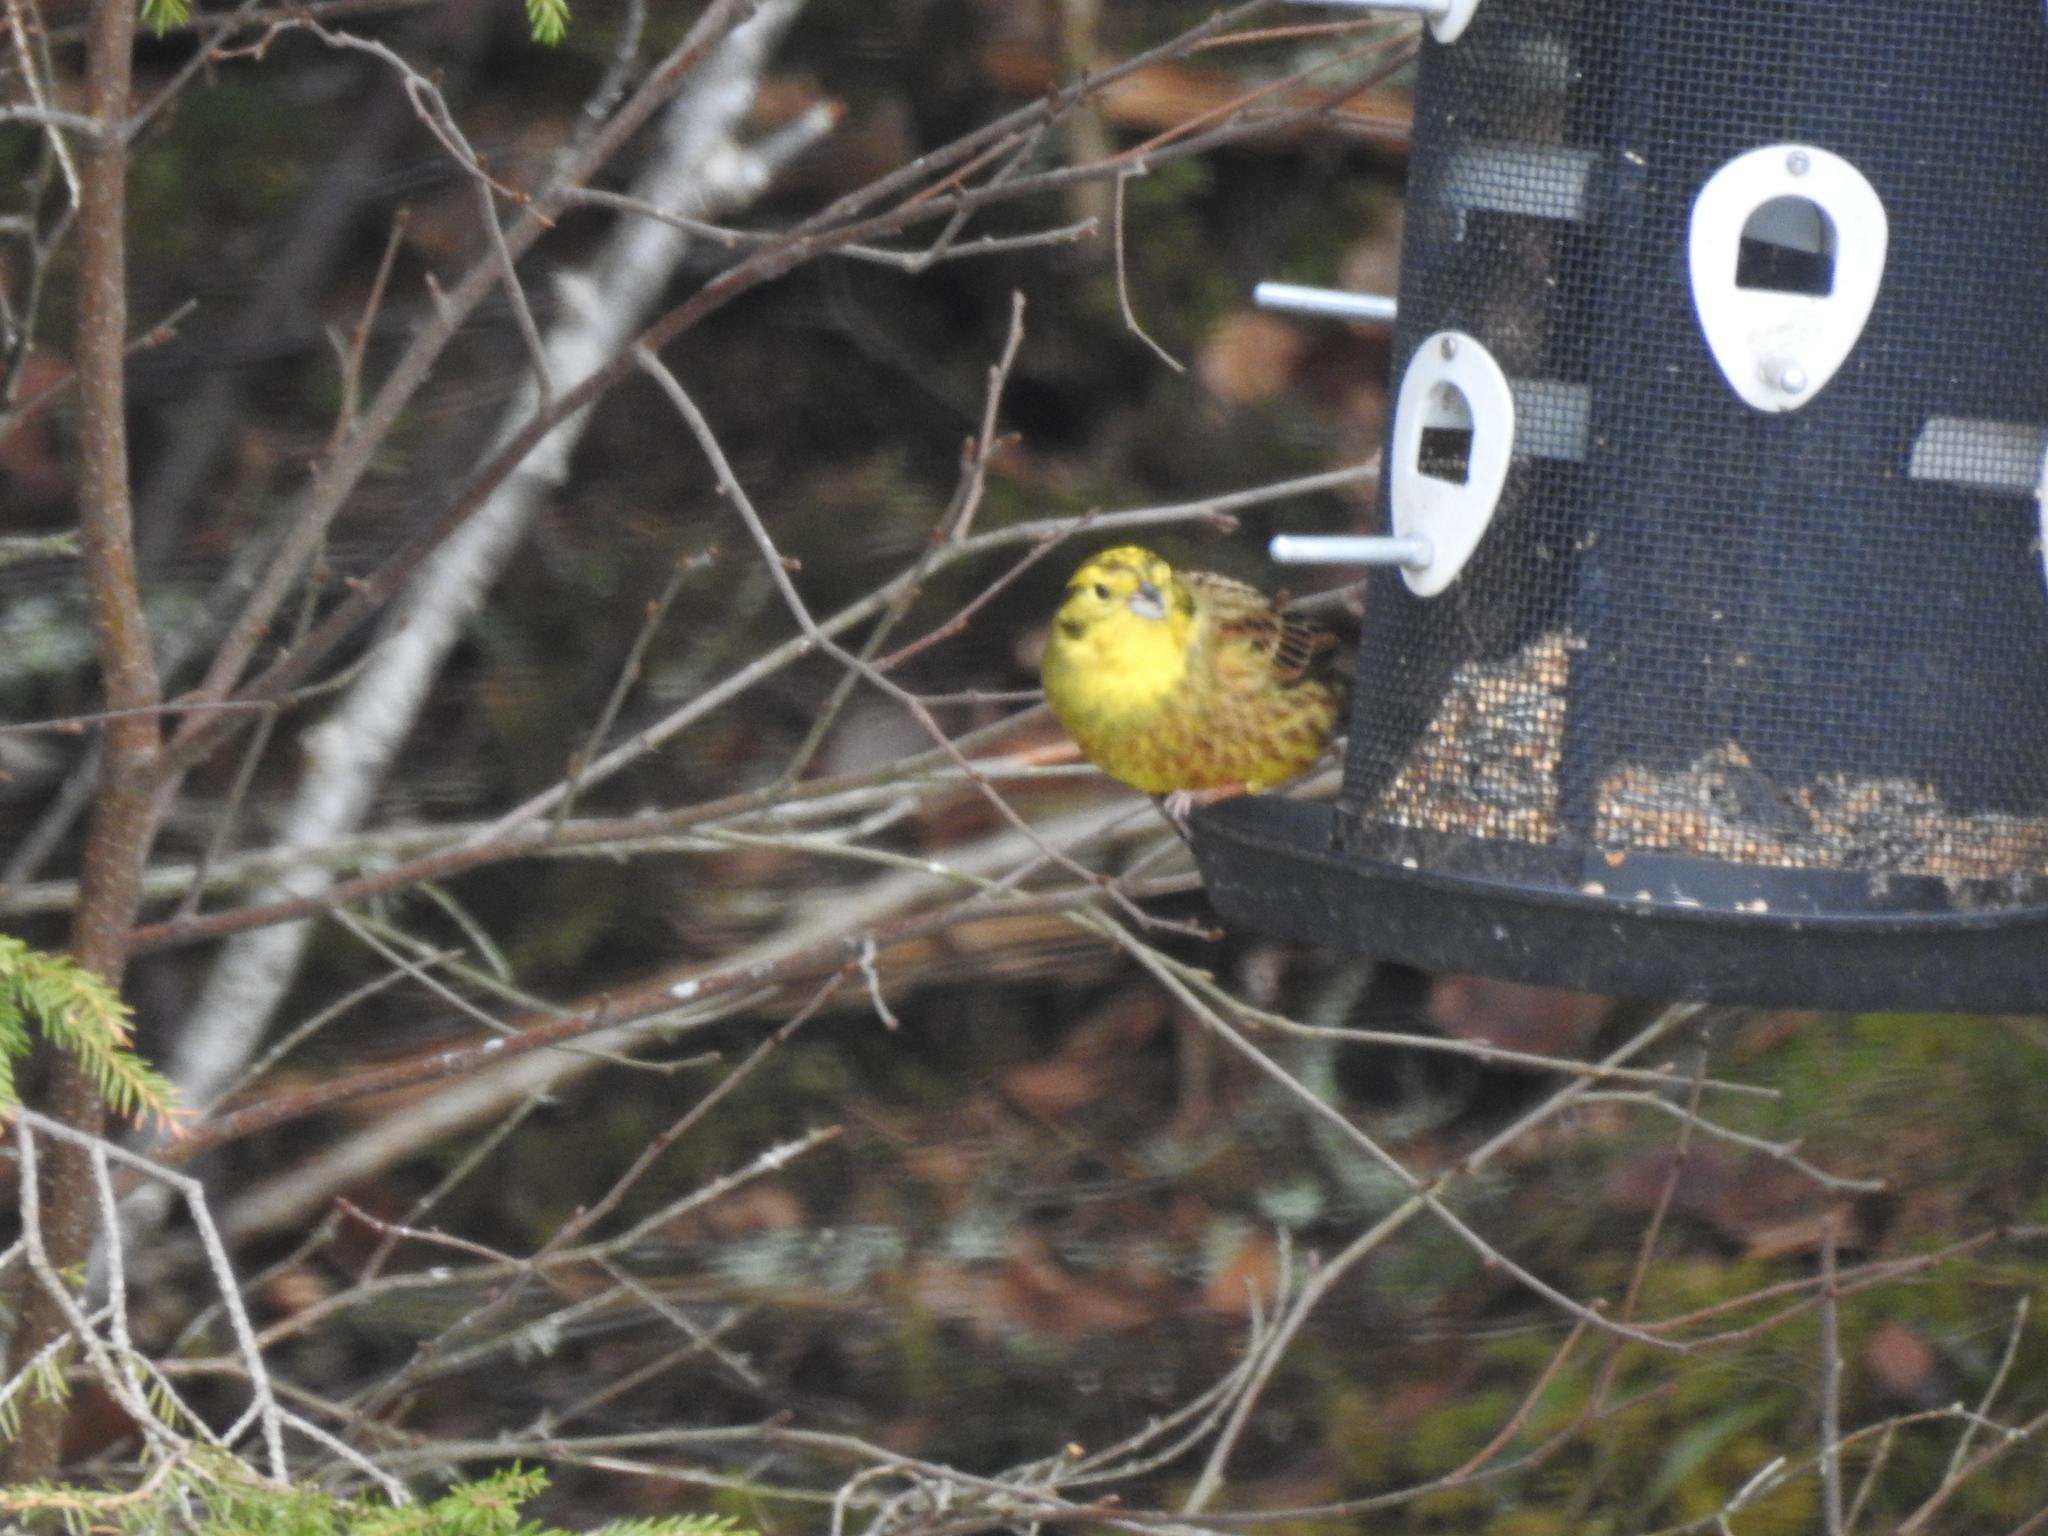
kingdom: Animalia
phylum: Chordata
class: Aves
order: Passeriformes
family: Emberizidae
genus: Emberiza
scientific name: Emberiza citrinella
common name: Yellowhammer
